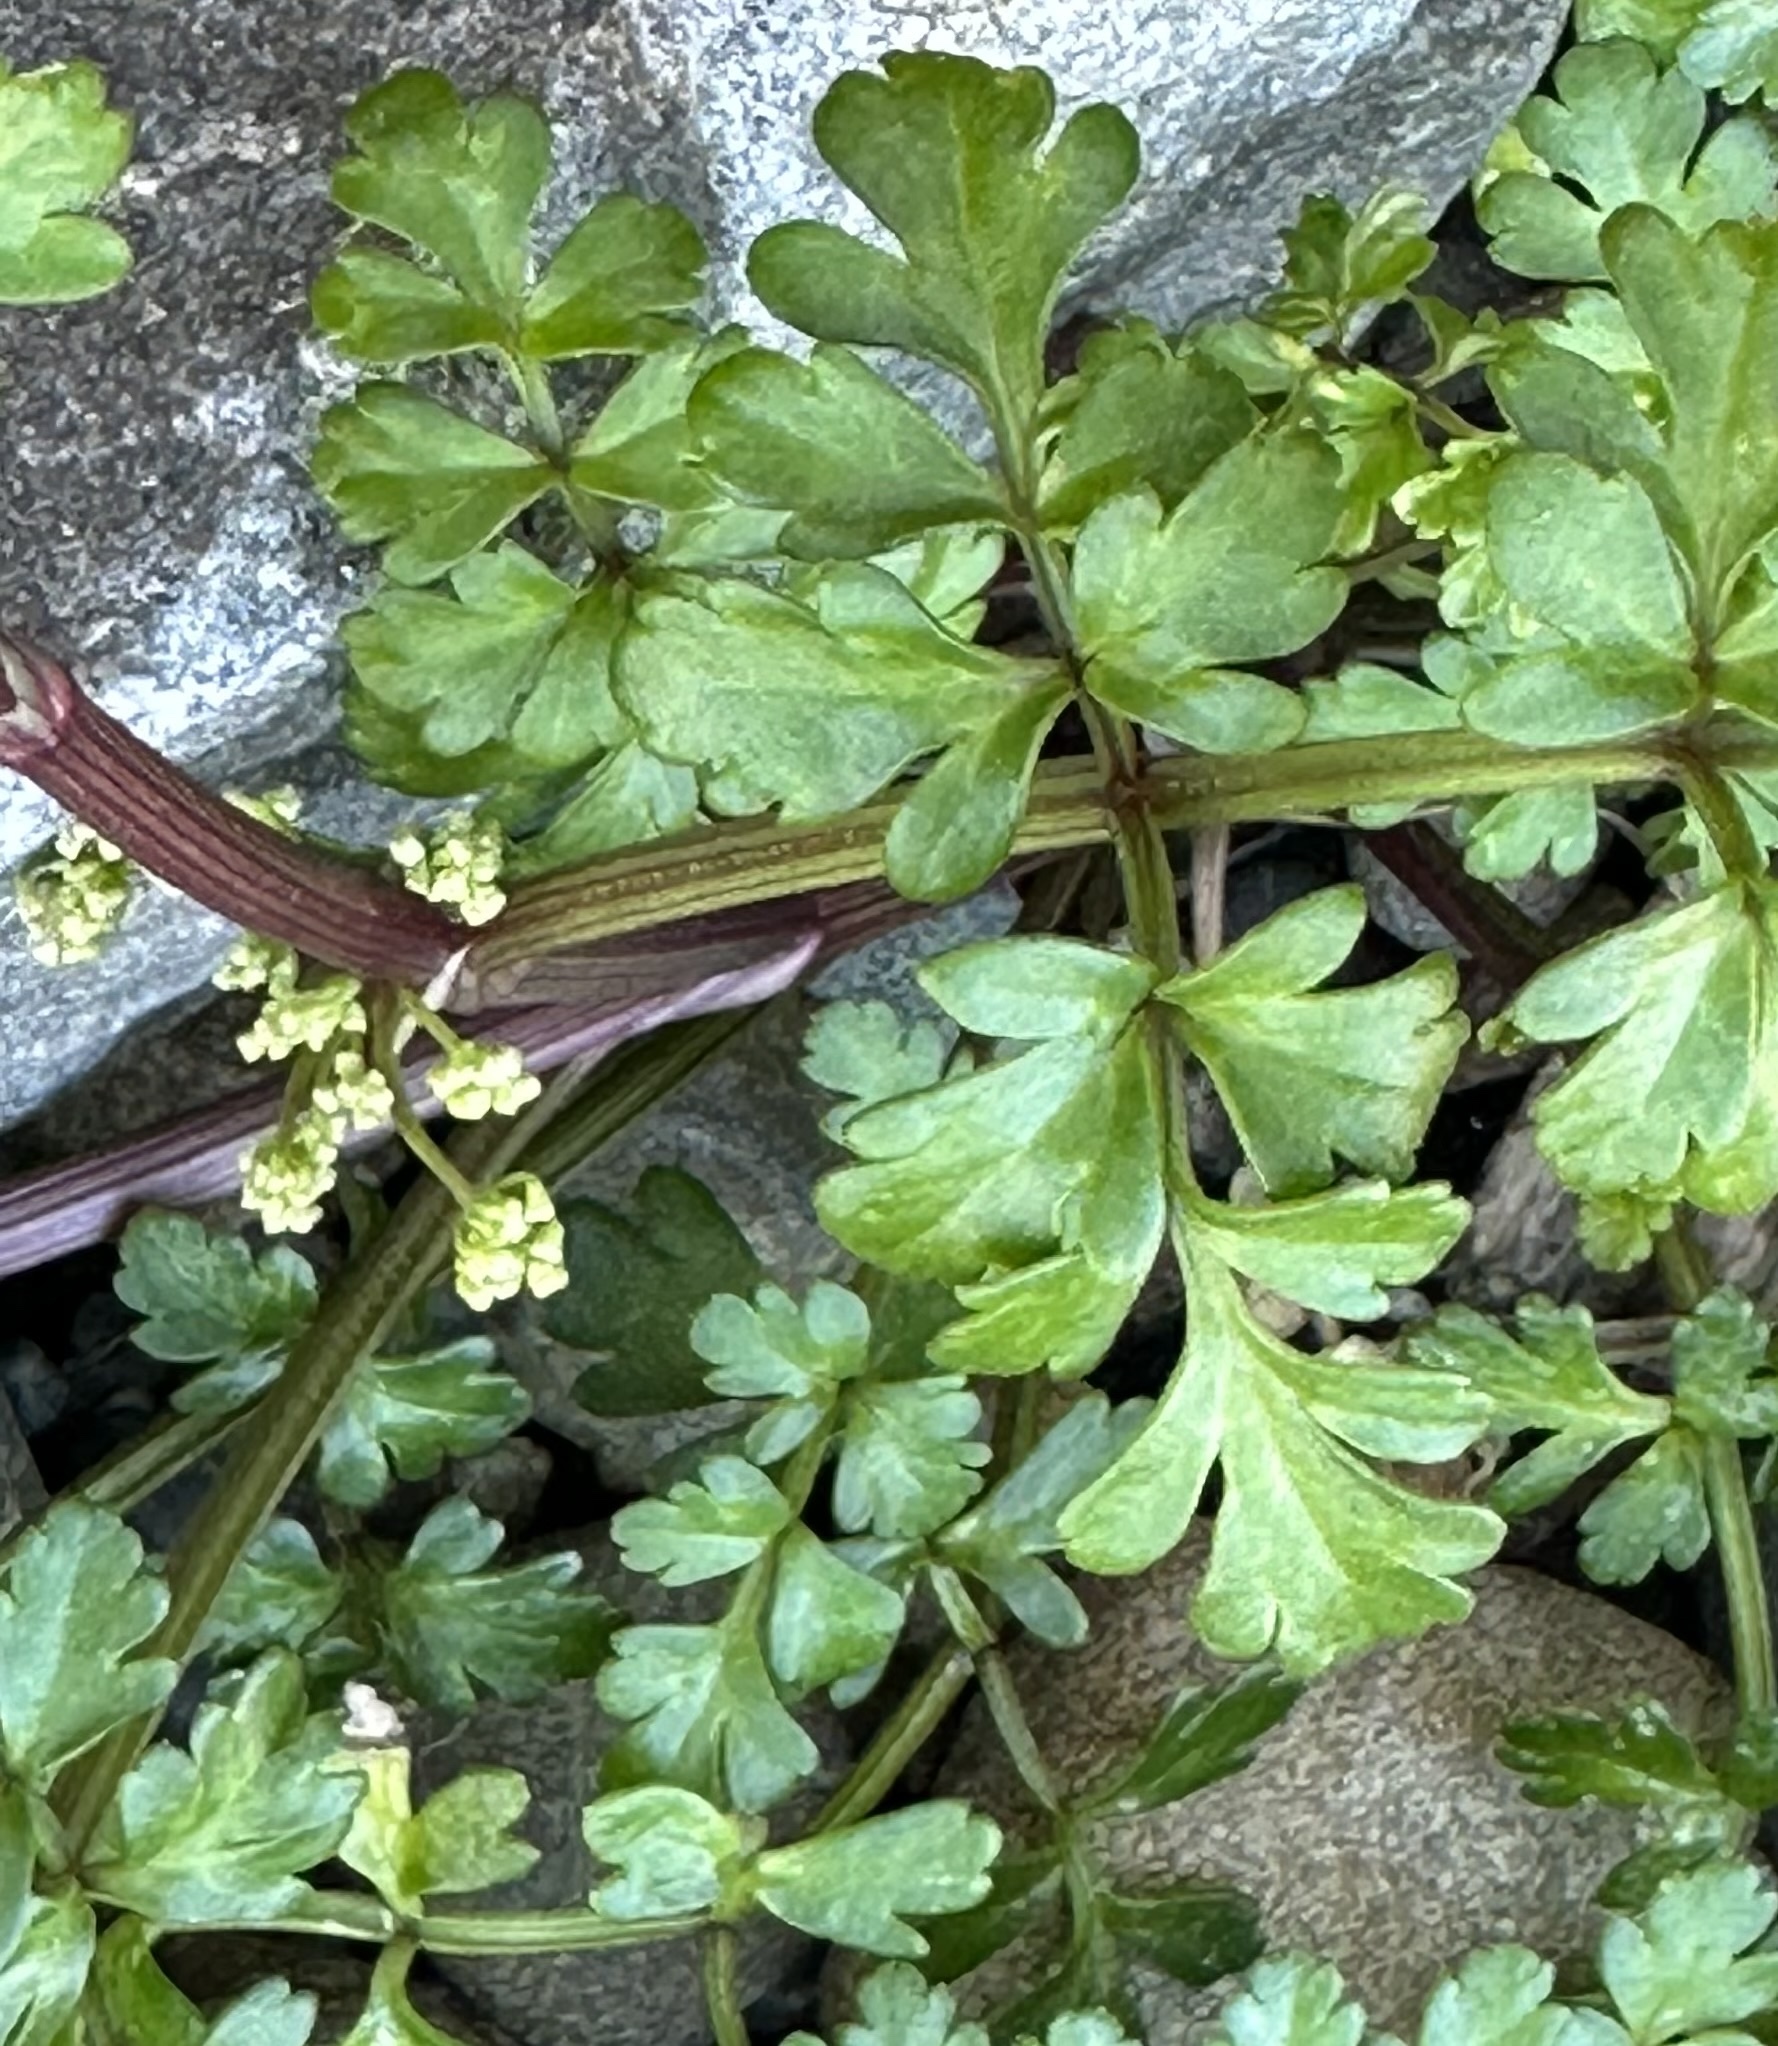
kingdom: Plantae
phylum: Tracheophyta
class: Magnoliopsida
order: Apiales
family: Apiaceae
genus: Apium
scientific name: Apium prostratum
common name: Prostrate marshwort
